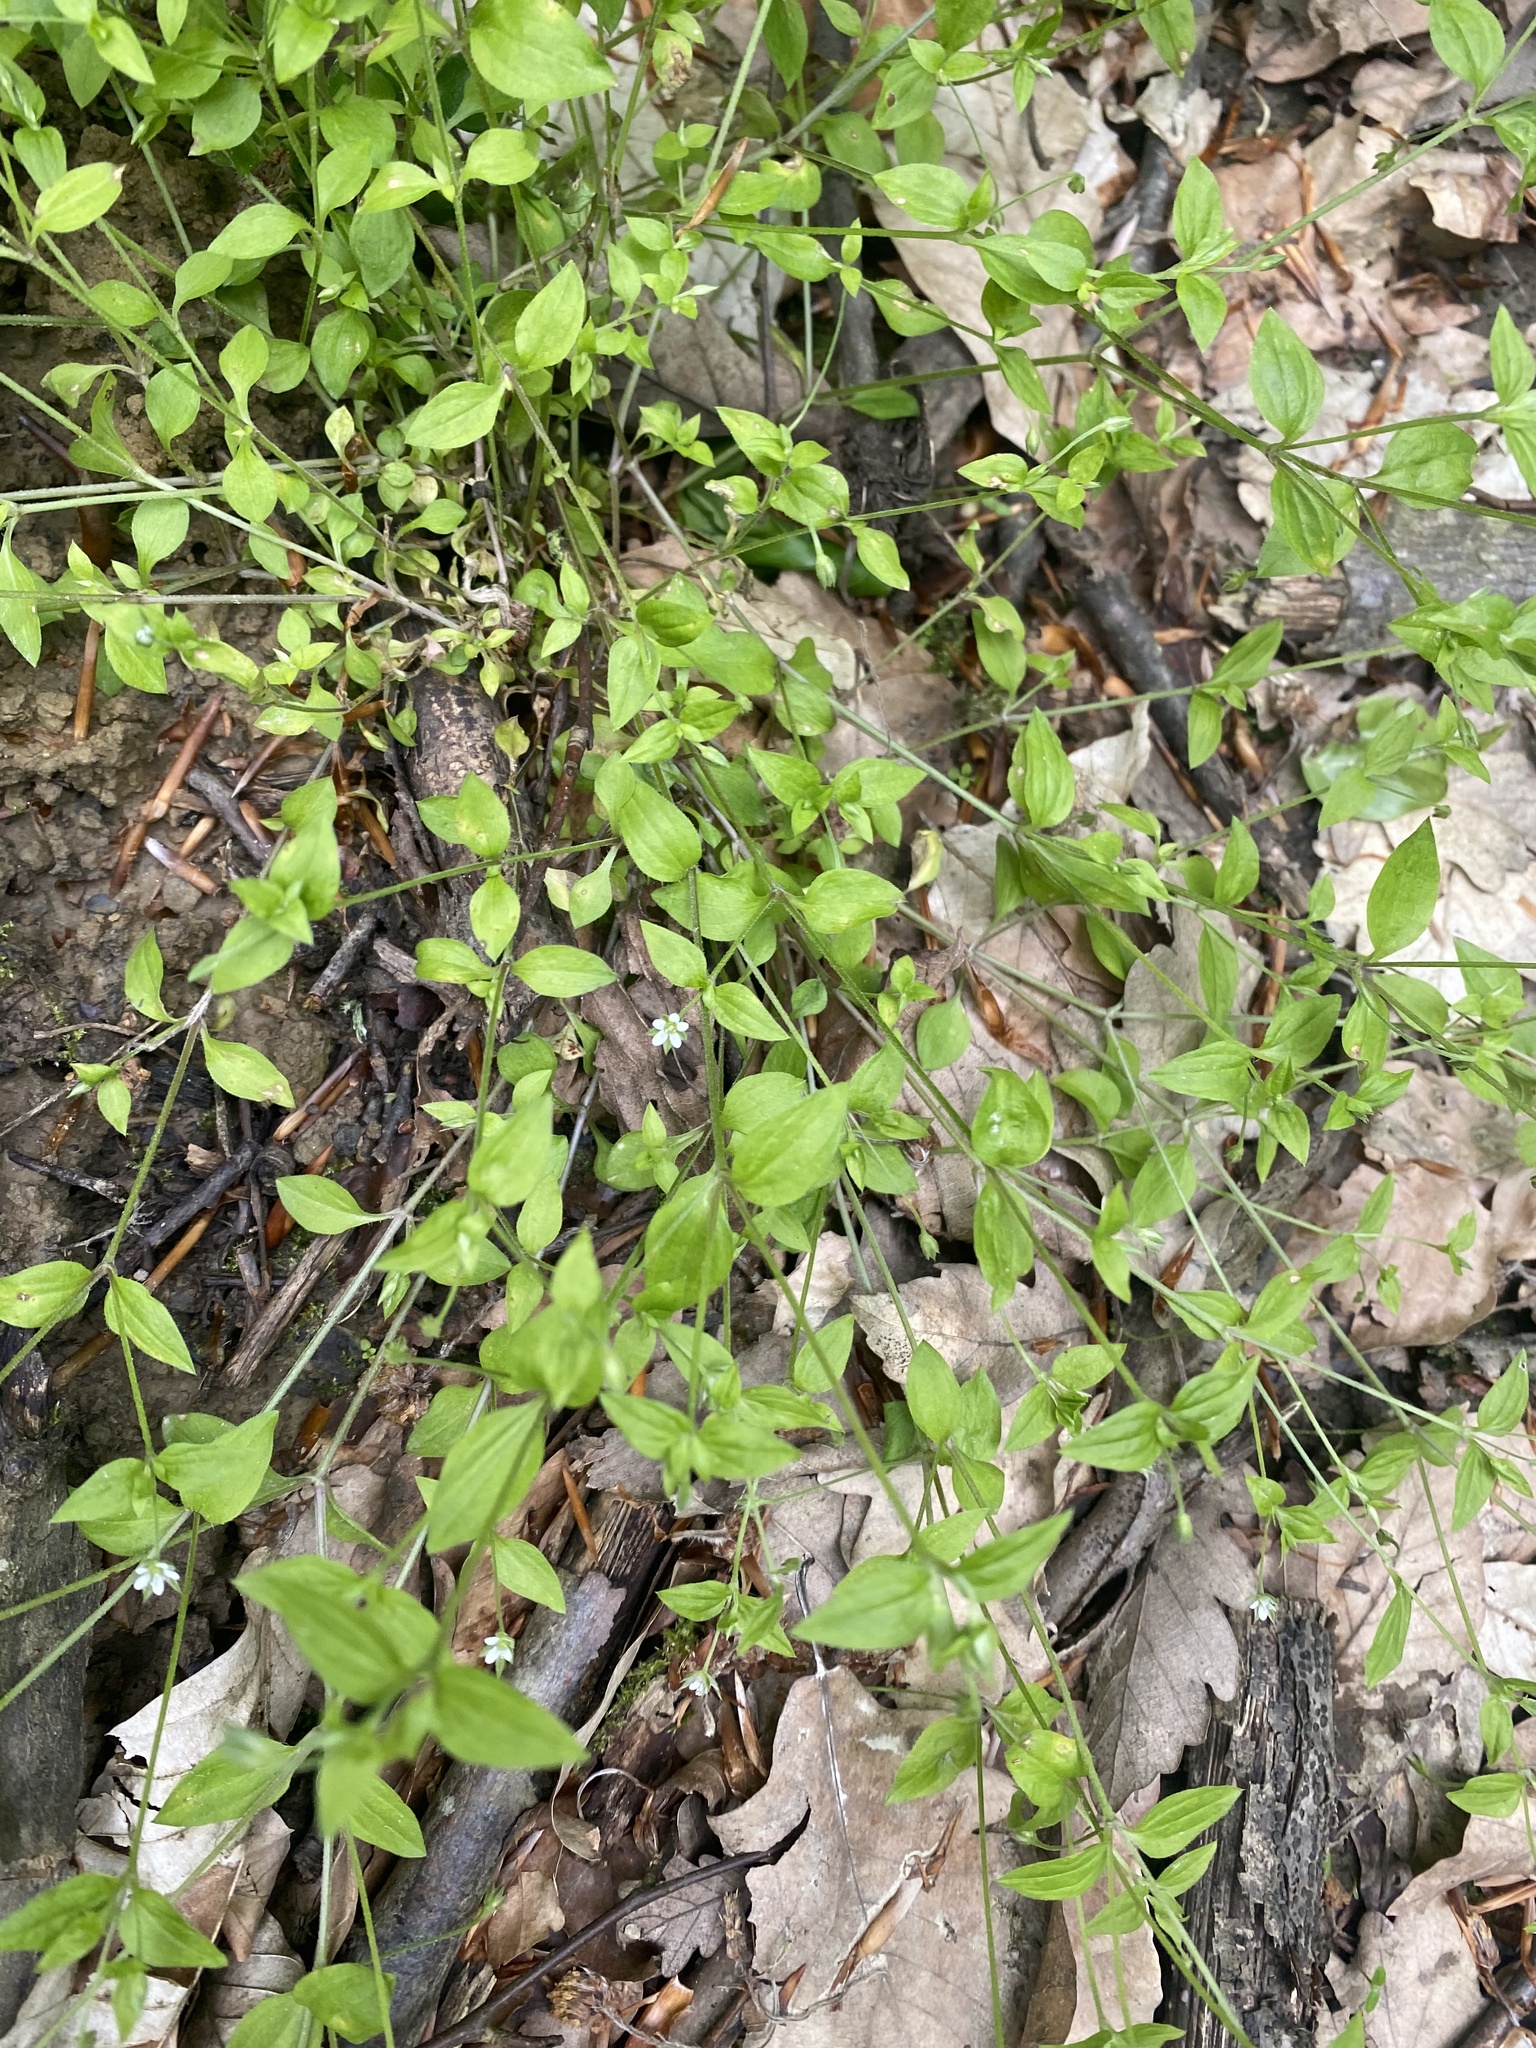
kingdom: Plantae
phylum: Tracheophyta
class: Magnoliopsida
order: Caryophyllales
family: Caryophyllaceae
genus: Moehringia
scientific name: Moehringia trinervia
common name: Three-nerved sandwort
